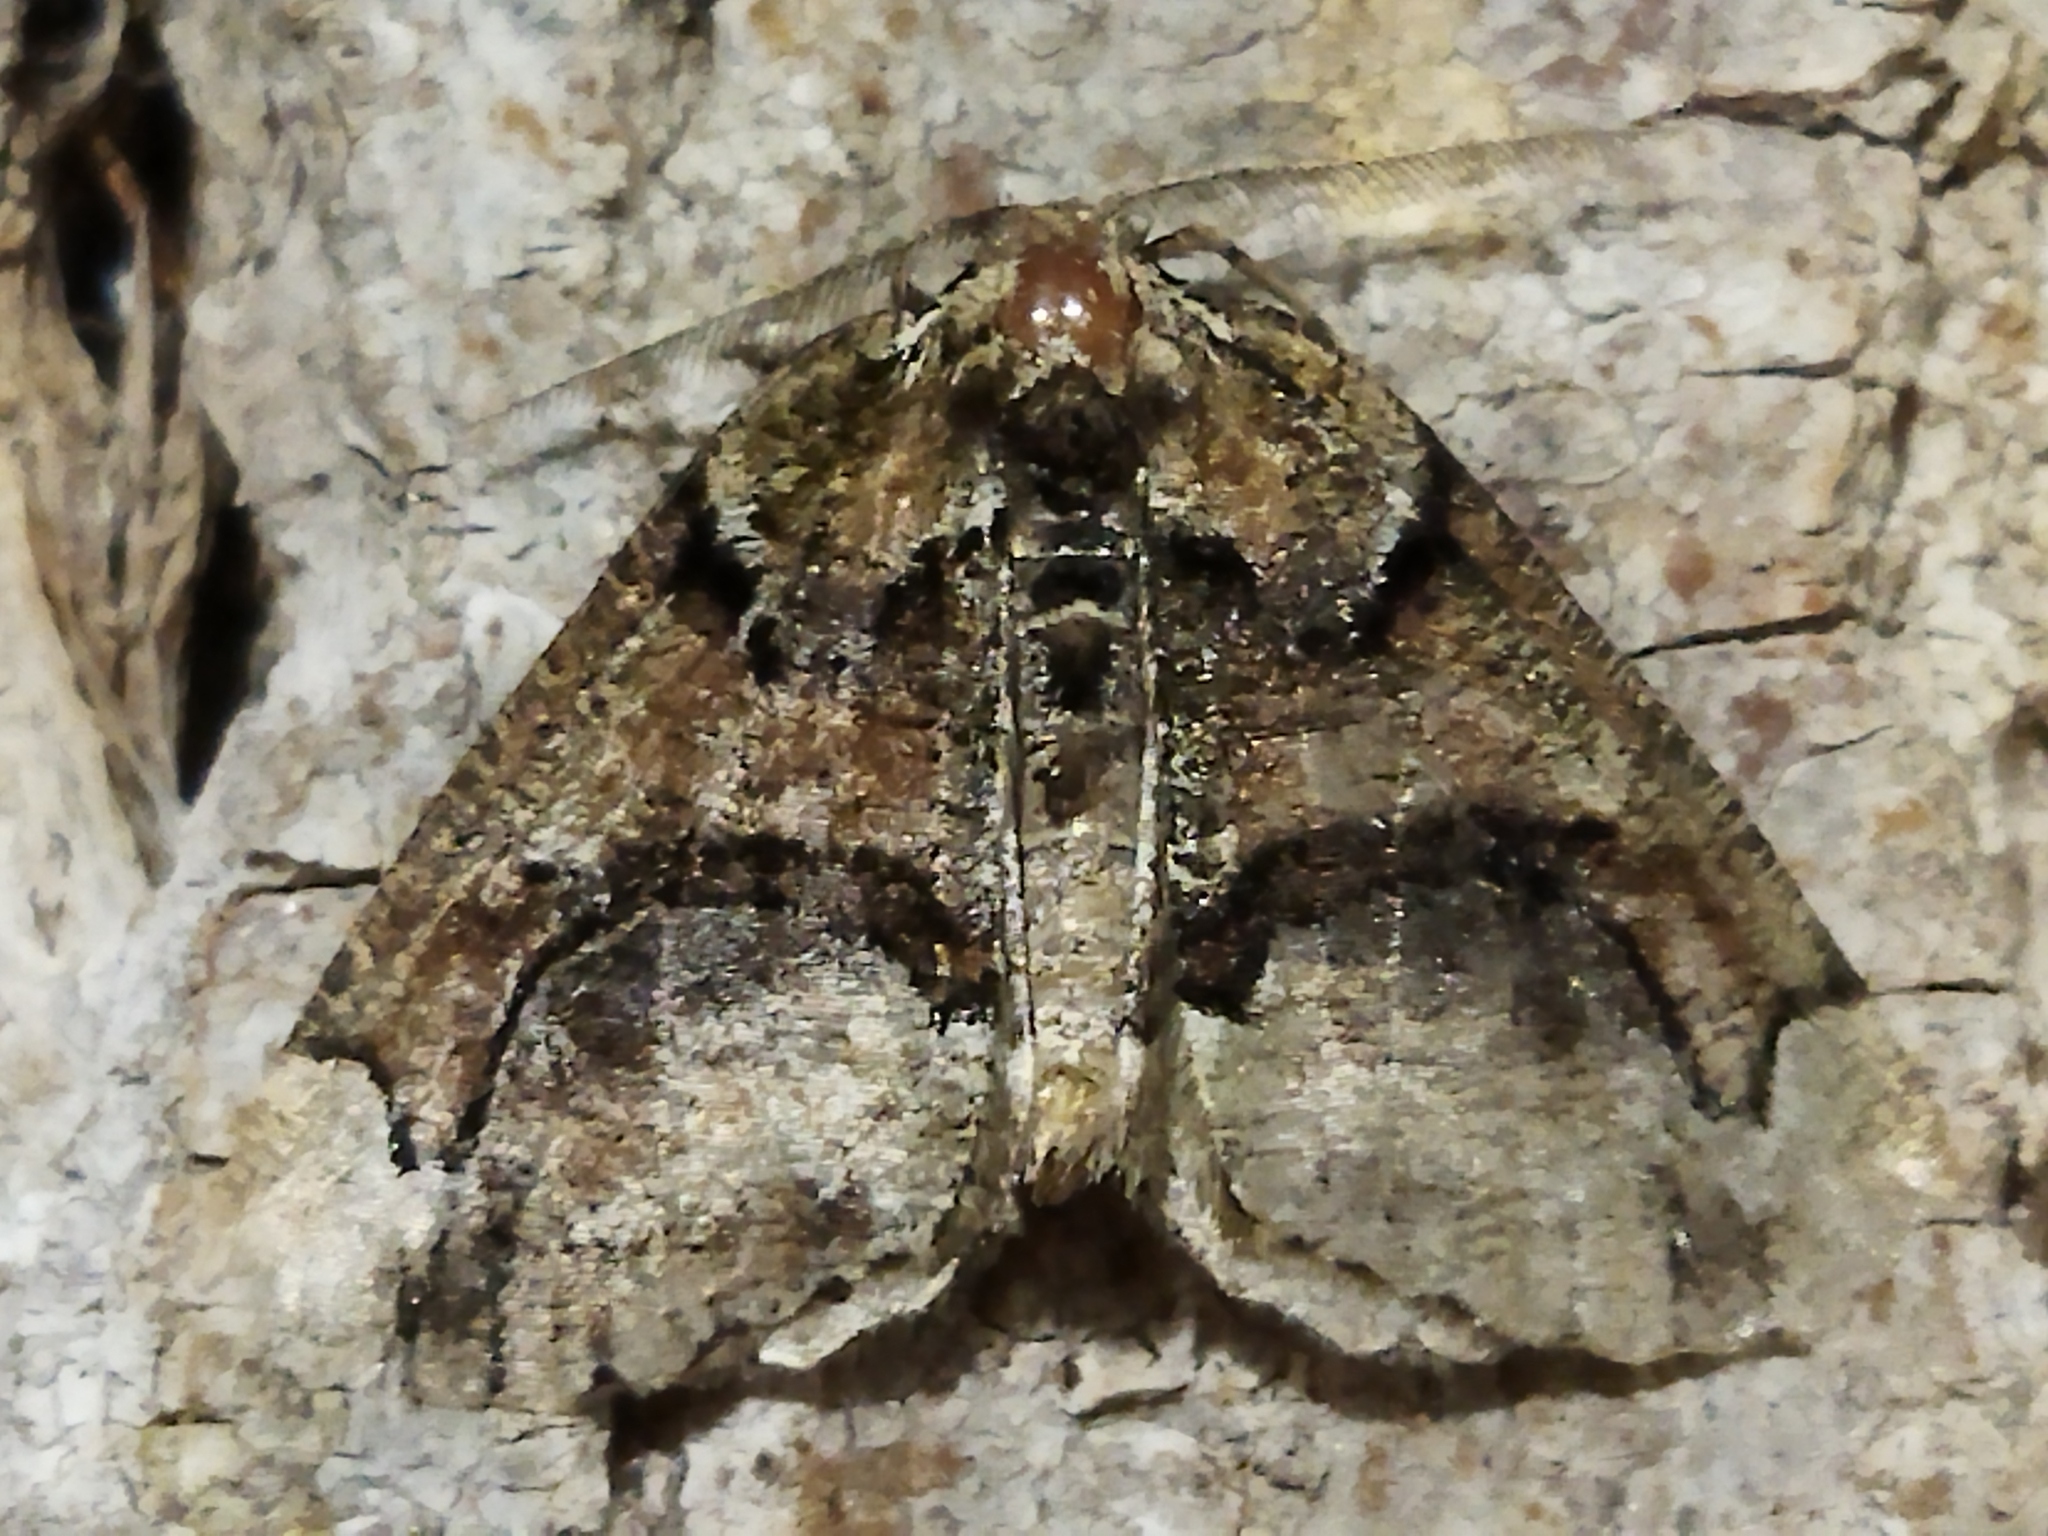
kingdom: Animalia
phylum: Arthropoda
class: Insecta
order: Lepidoptera
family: Geometridae
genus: Asovia
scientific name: Asovia maeoticaria
